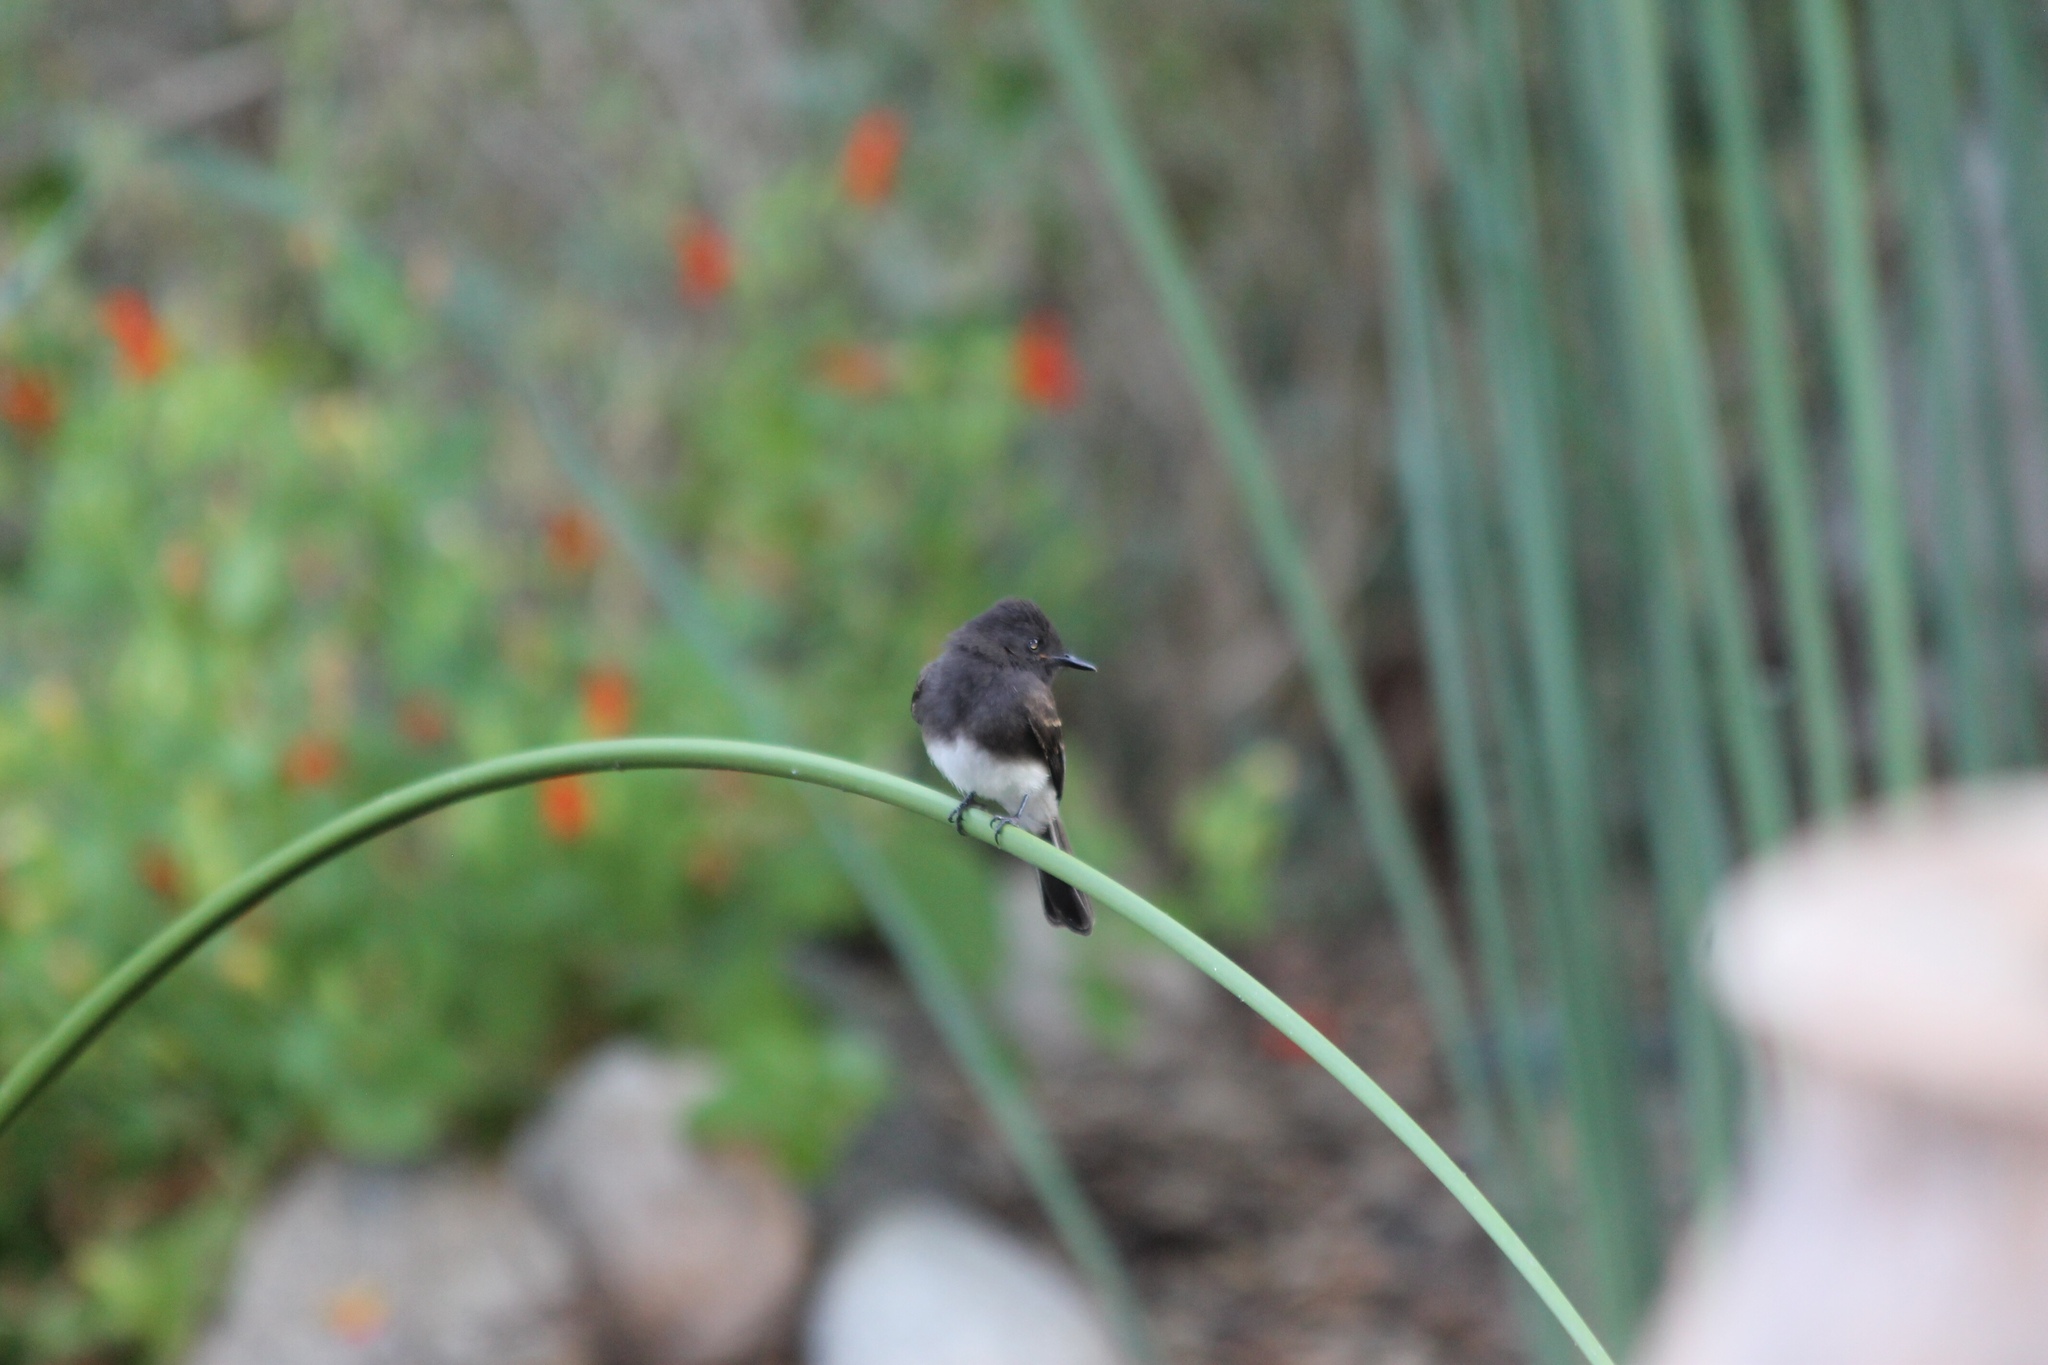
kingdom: Animalia
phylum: Chordata
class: Aves
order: Passeriformes
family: Tyrannidae
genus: Sayornis
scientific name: Sayornis nigricans
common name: Black phoebe
